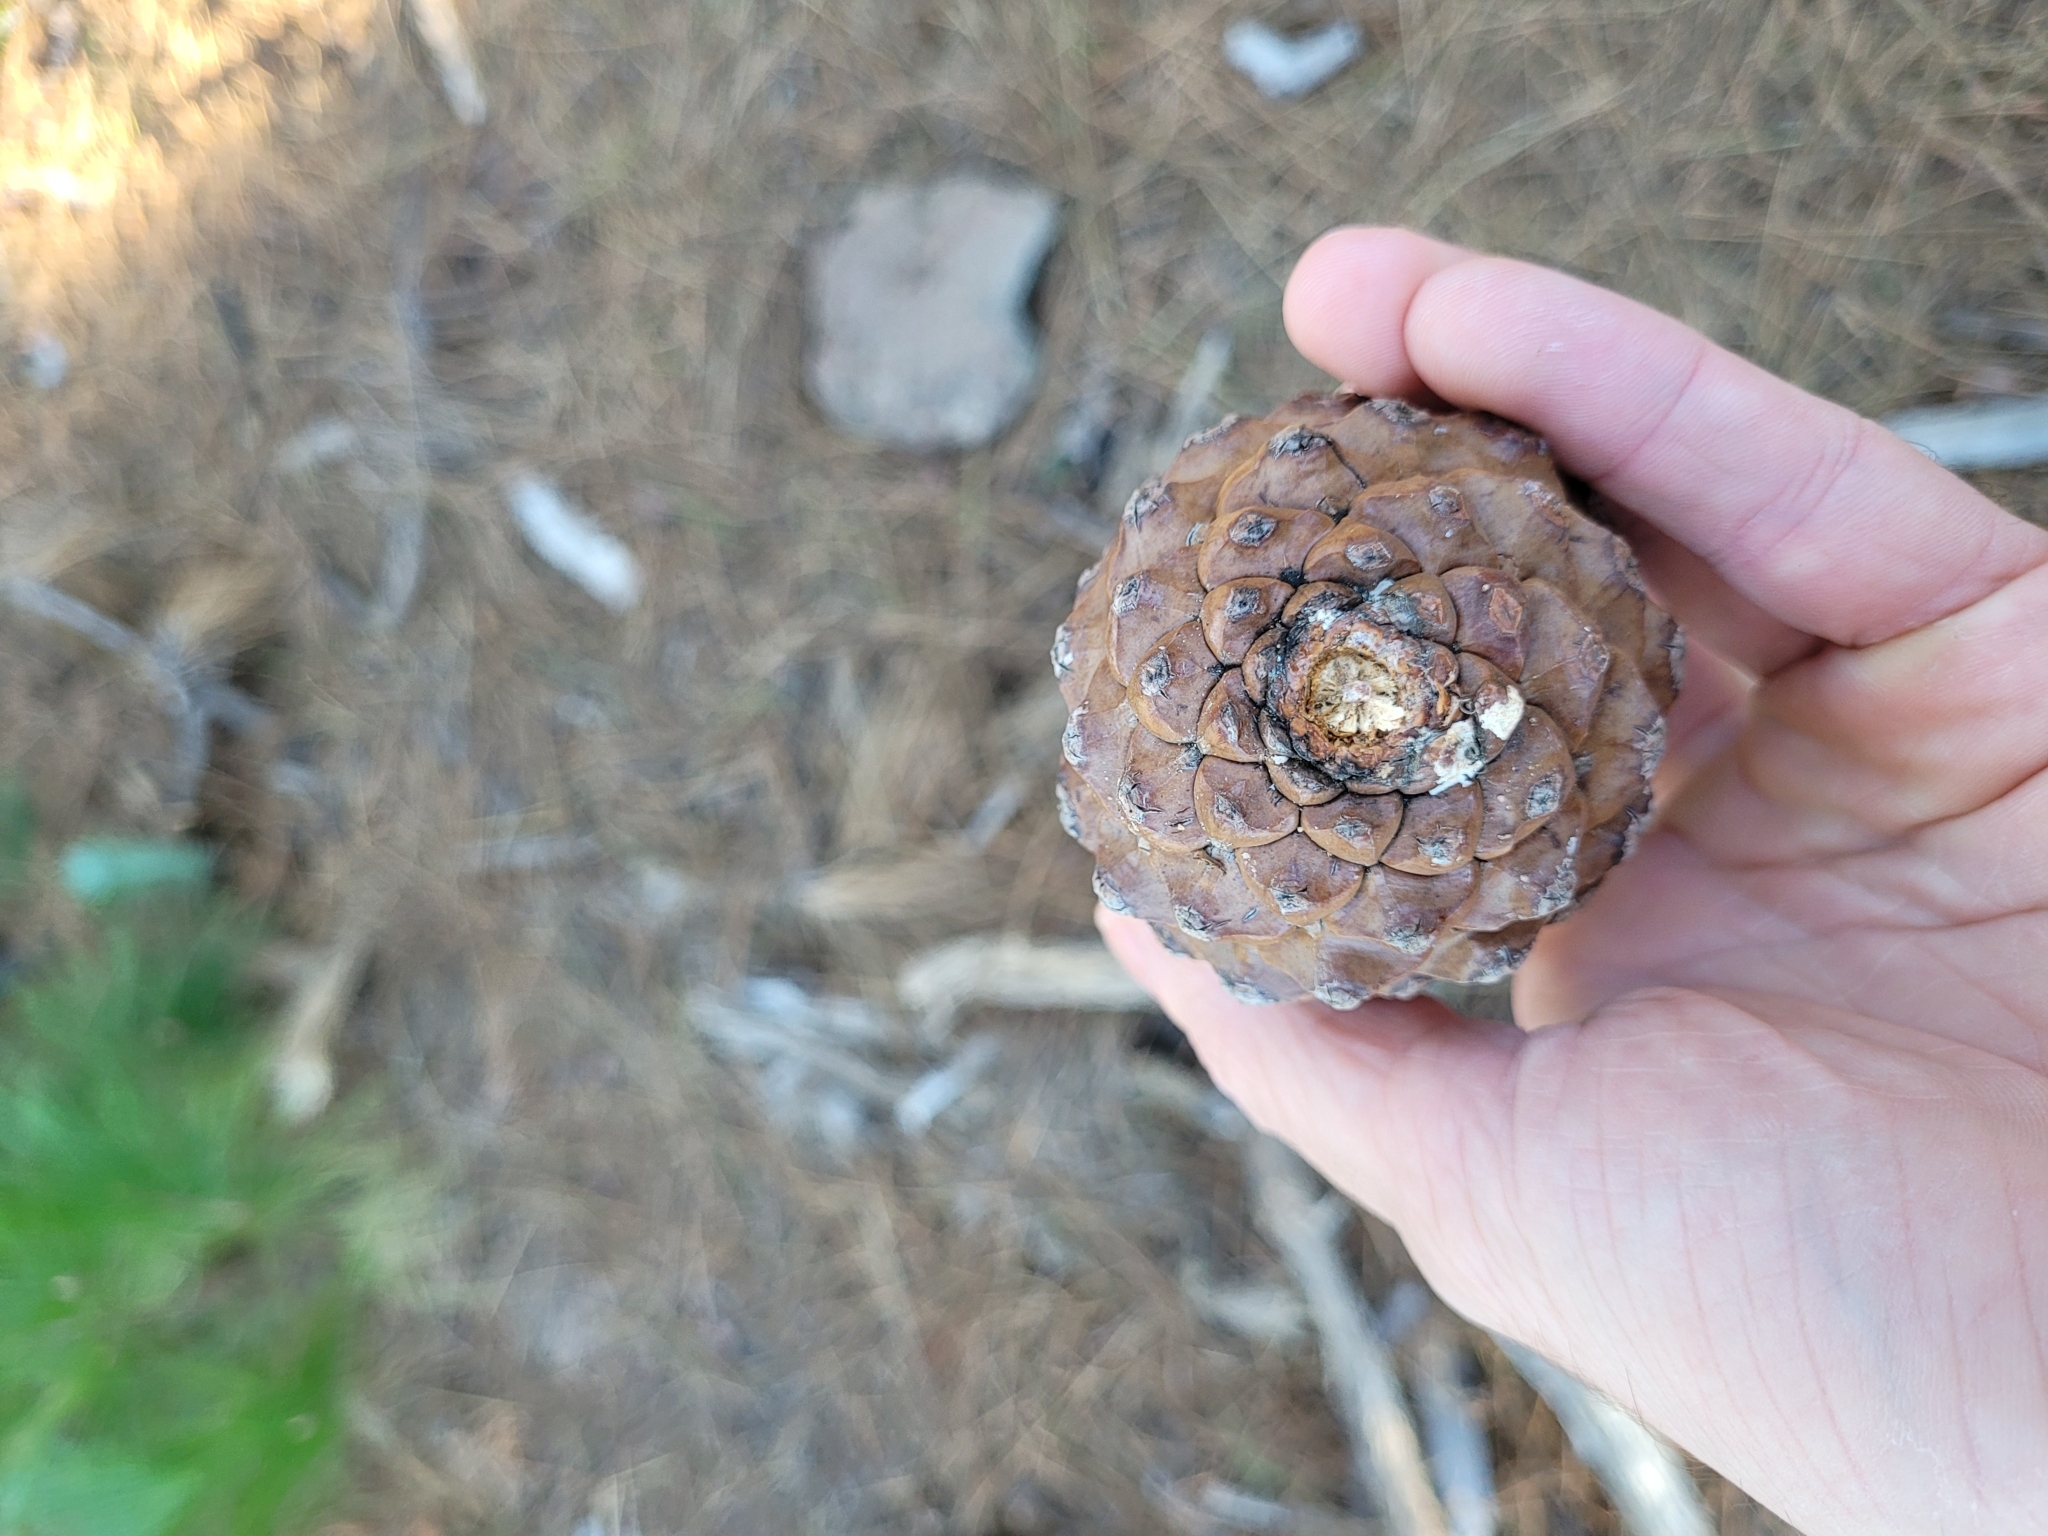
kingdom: Plantae
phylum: Tracheophyta
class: Pinopsida
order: Pinales
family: Pinaceae
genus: Pinus
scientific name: Pinus canariensis
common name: Canary islands pine
